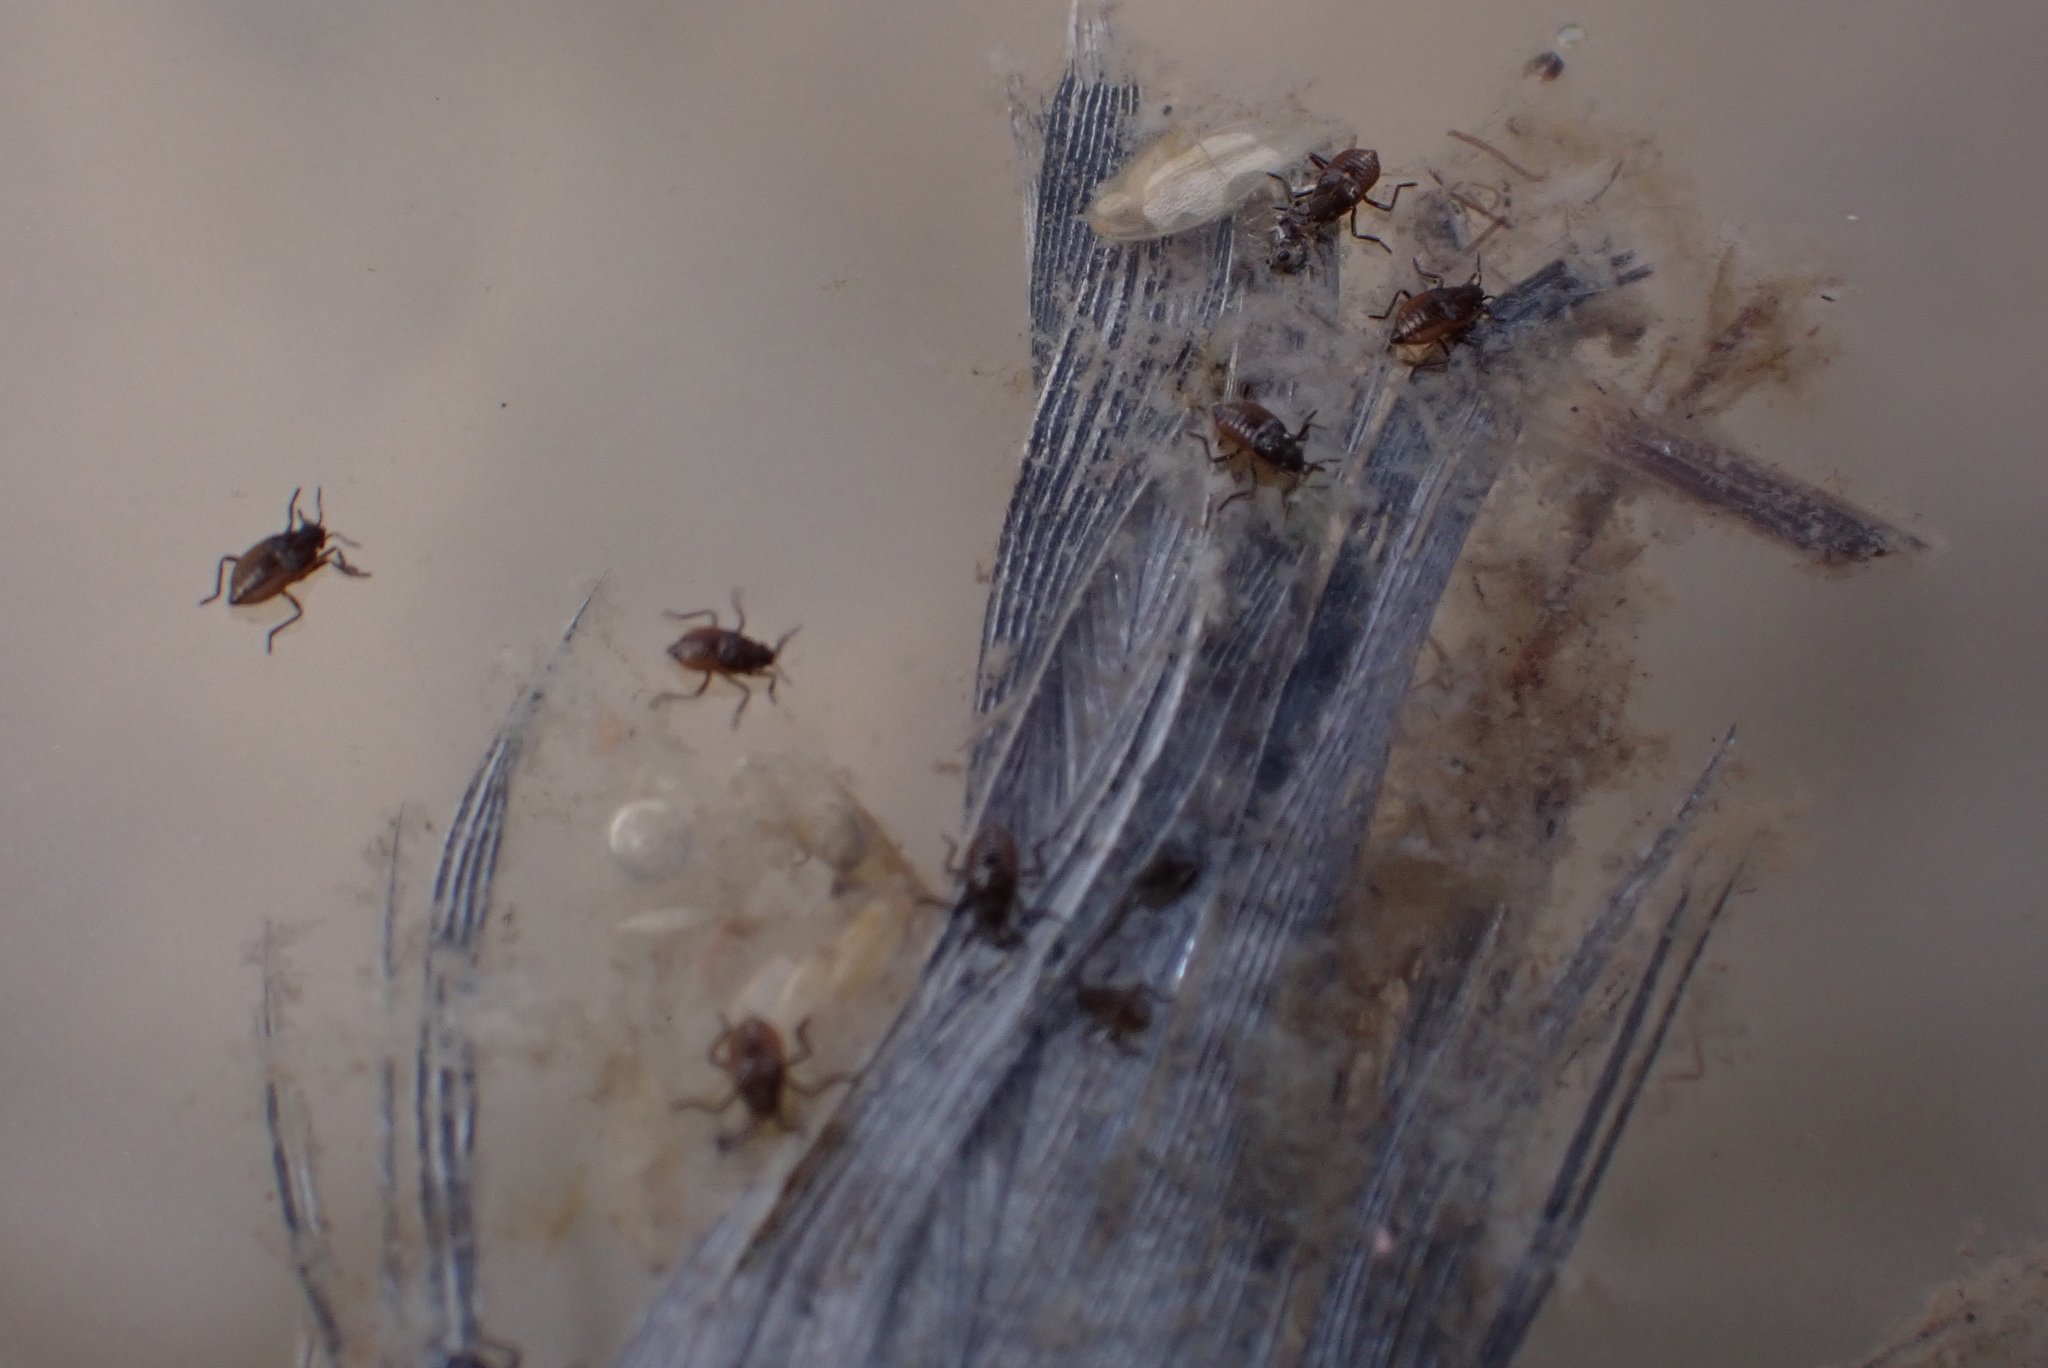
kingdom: Animalia
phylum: Arthropoda
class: Insecta
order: Hemiptera
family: Veliidae
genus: Microvelia
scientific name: Microvelia macgregori
